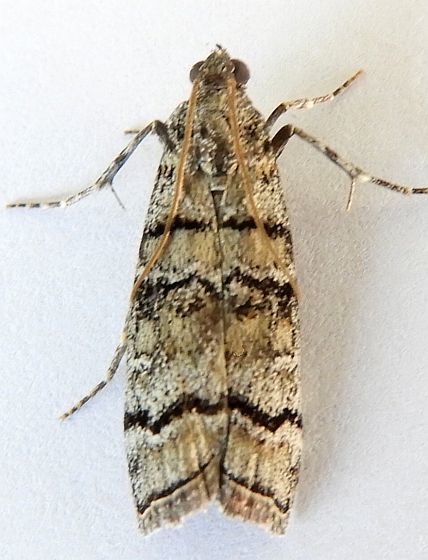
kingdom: Animalia
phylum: Arthropoda
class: Insecta
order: Lepidoptera
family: Pyralidae
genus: Dioryctria
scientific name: Dioryctria subtracta
